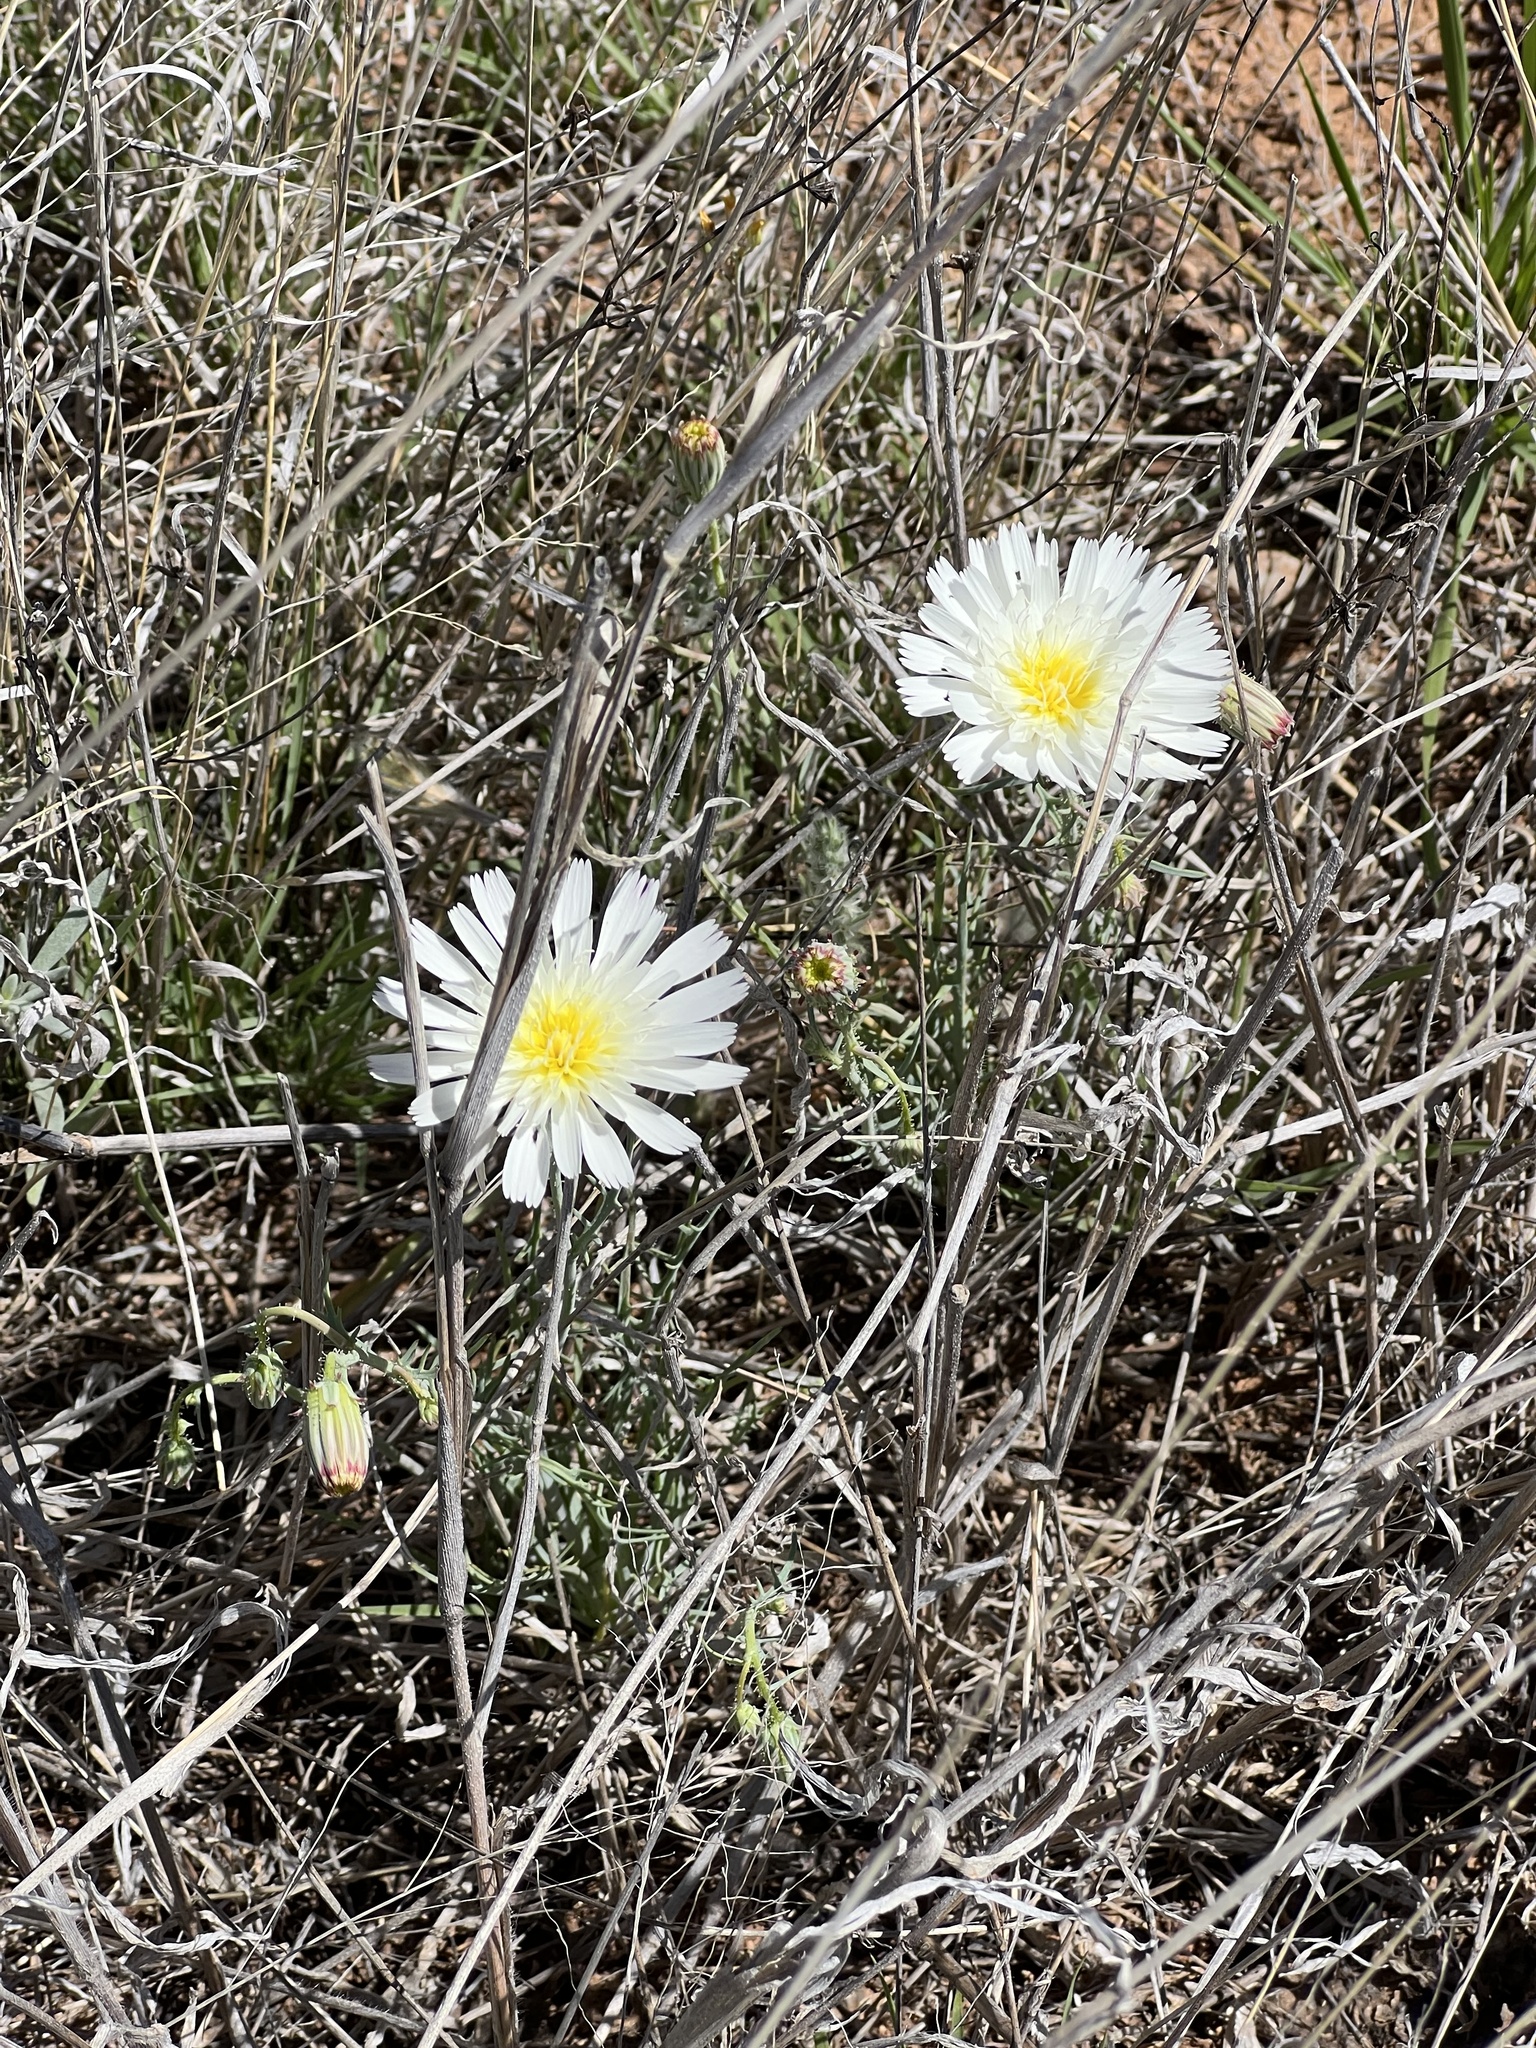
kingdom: Plantae
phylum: Tracheophyta
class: Magnoliopsida
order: Asterales
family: Asteraceae
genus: Calycoseris
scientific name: Calycoseris wrightii
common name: White tackstem
